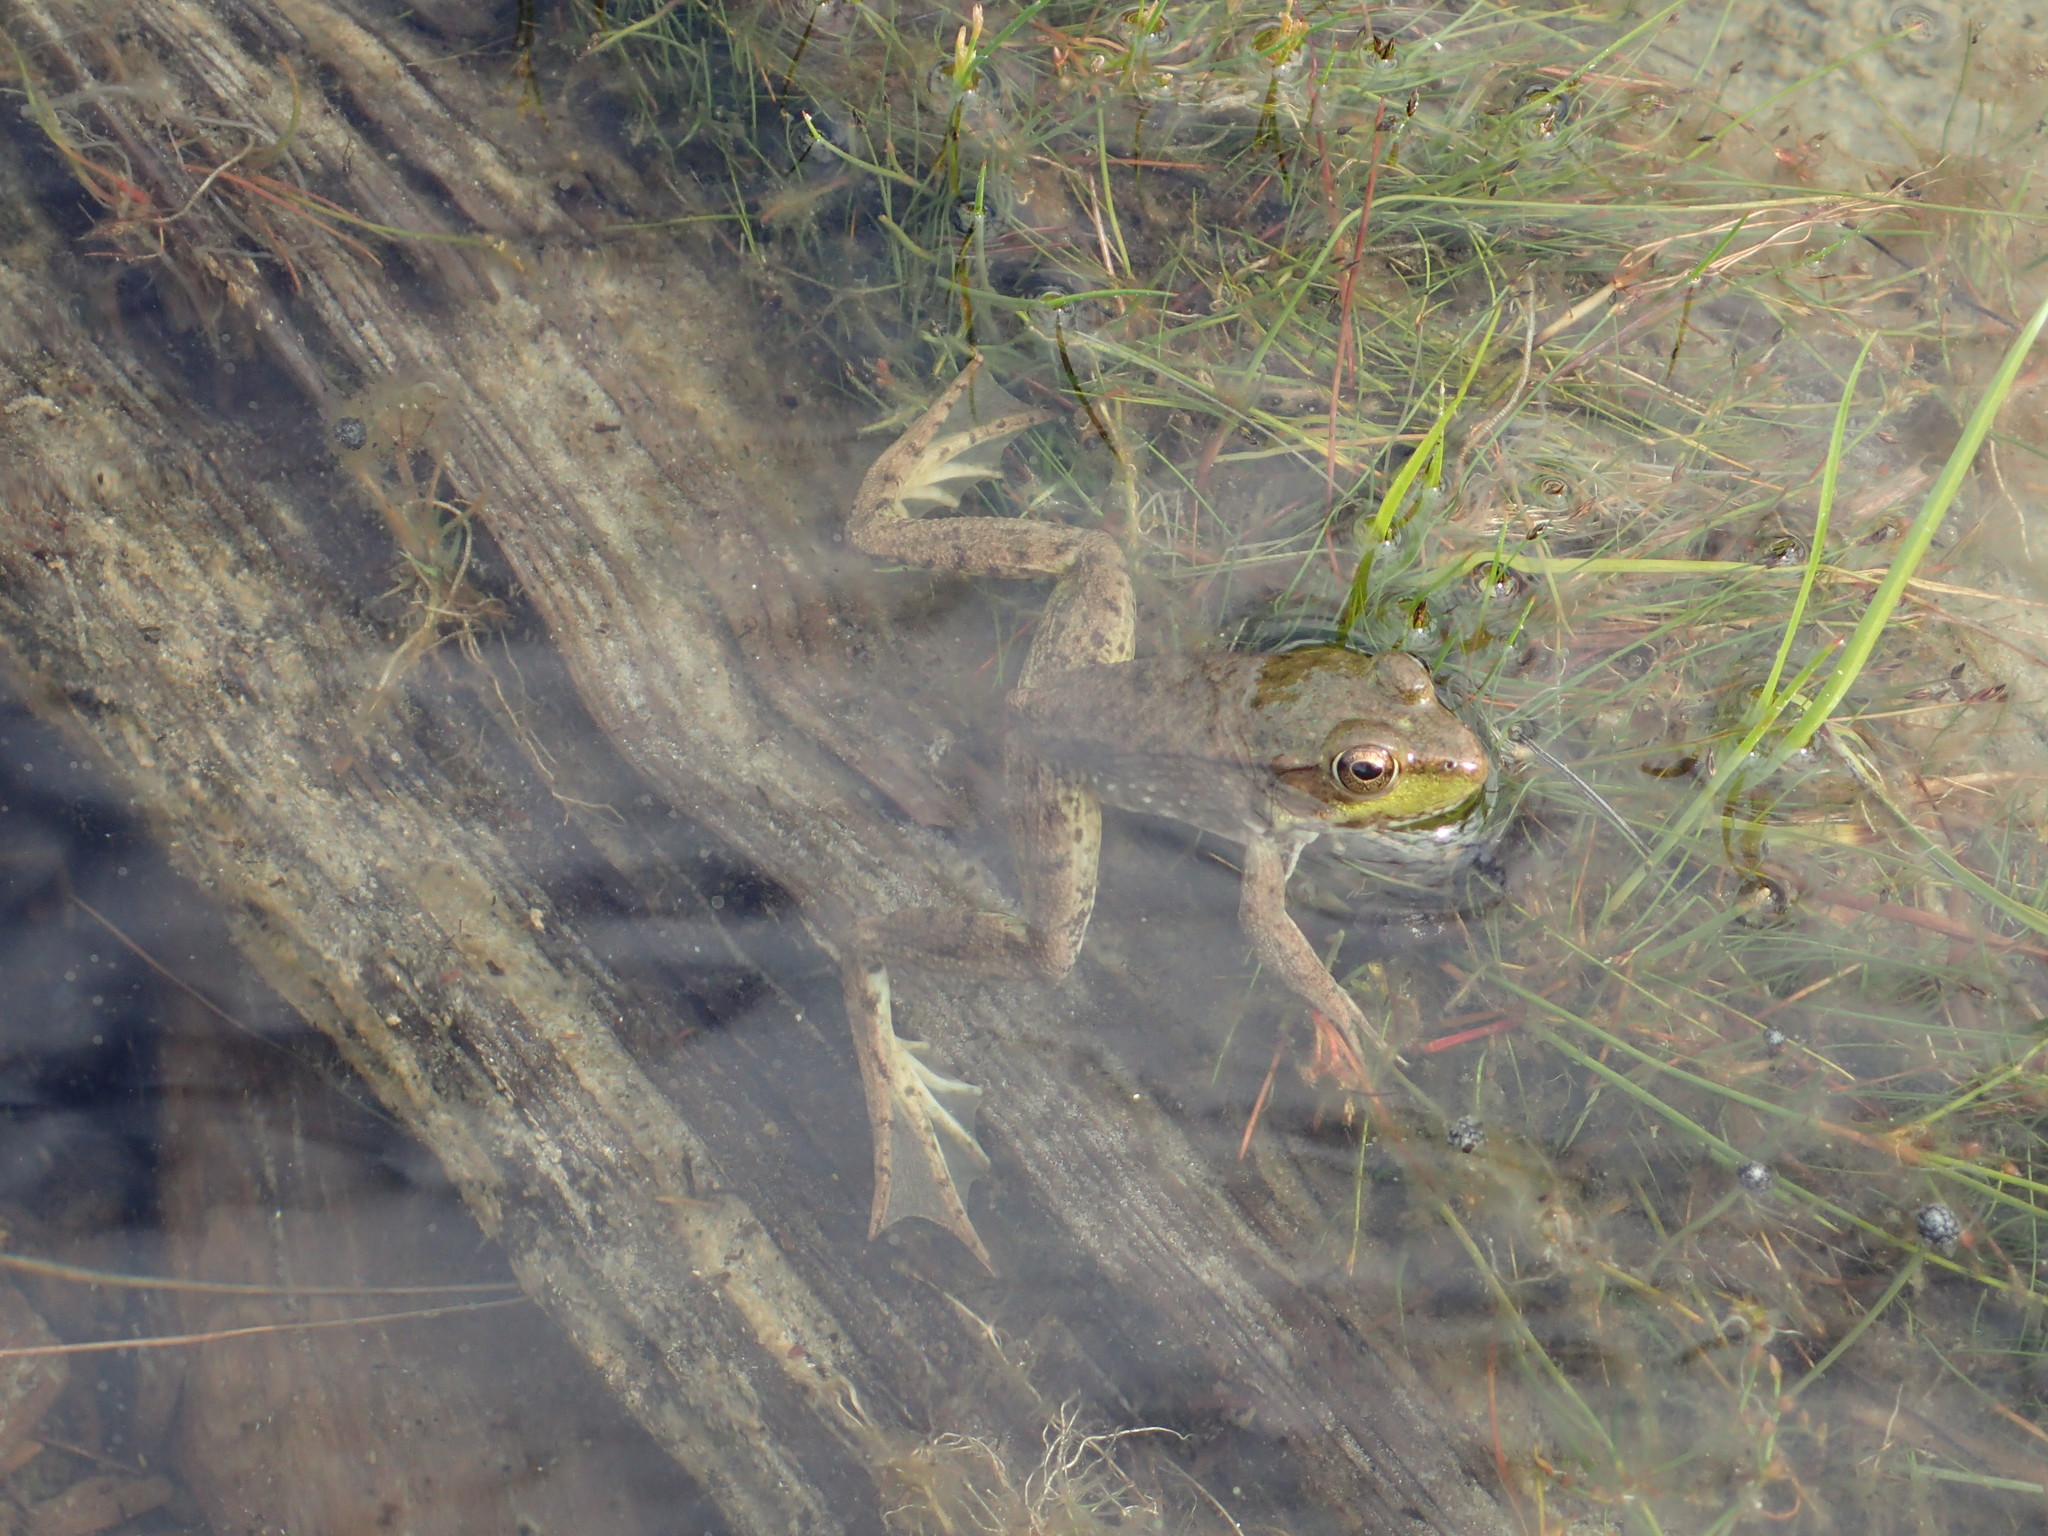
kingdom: Animalia
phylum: Chordata
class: Amphibia
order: Anura
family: Ranidae
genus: Lithobates
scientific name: Lithobates clamitans
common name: Green frog
